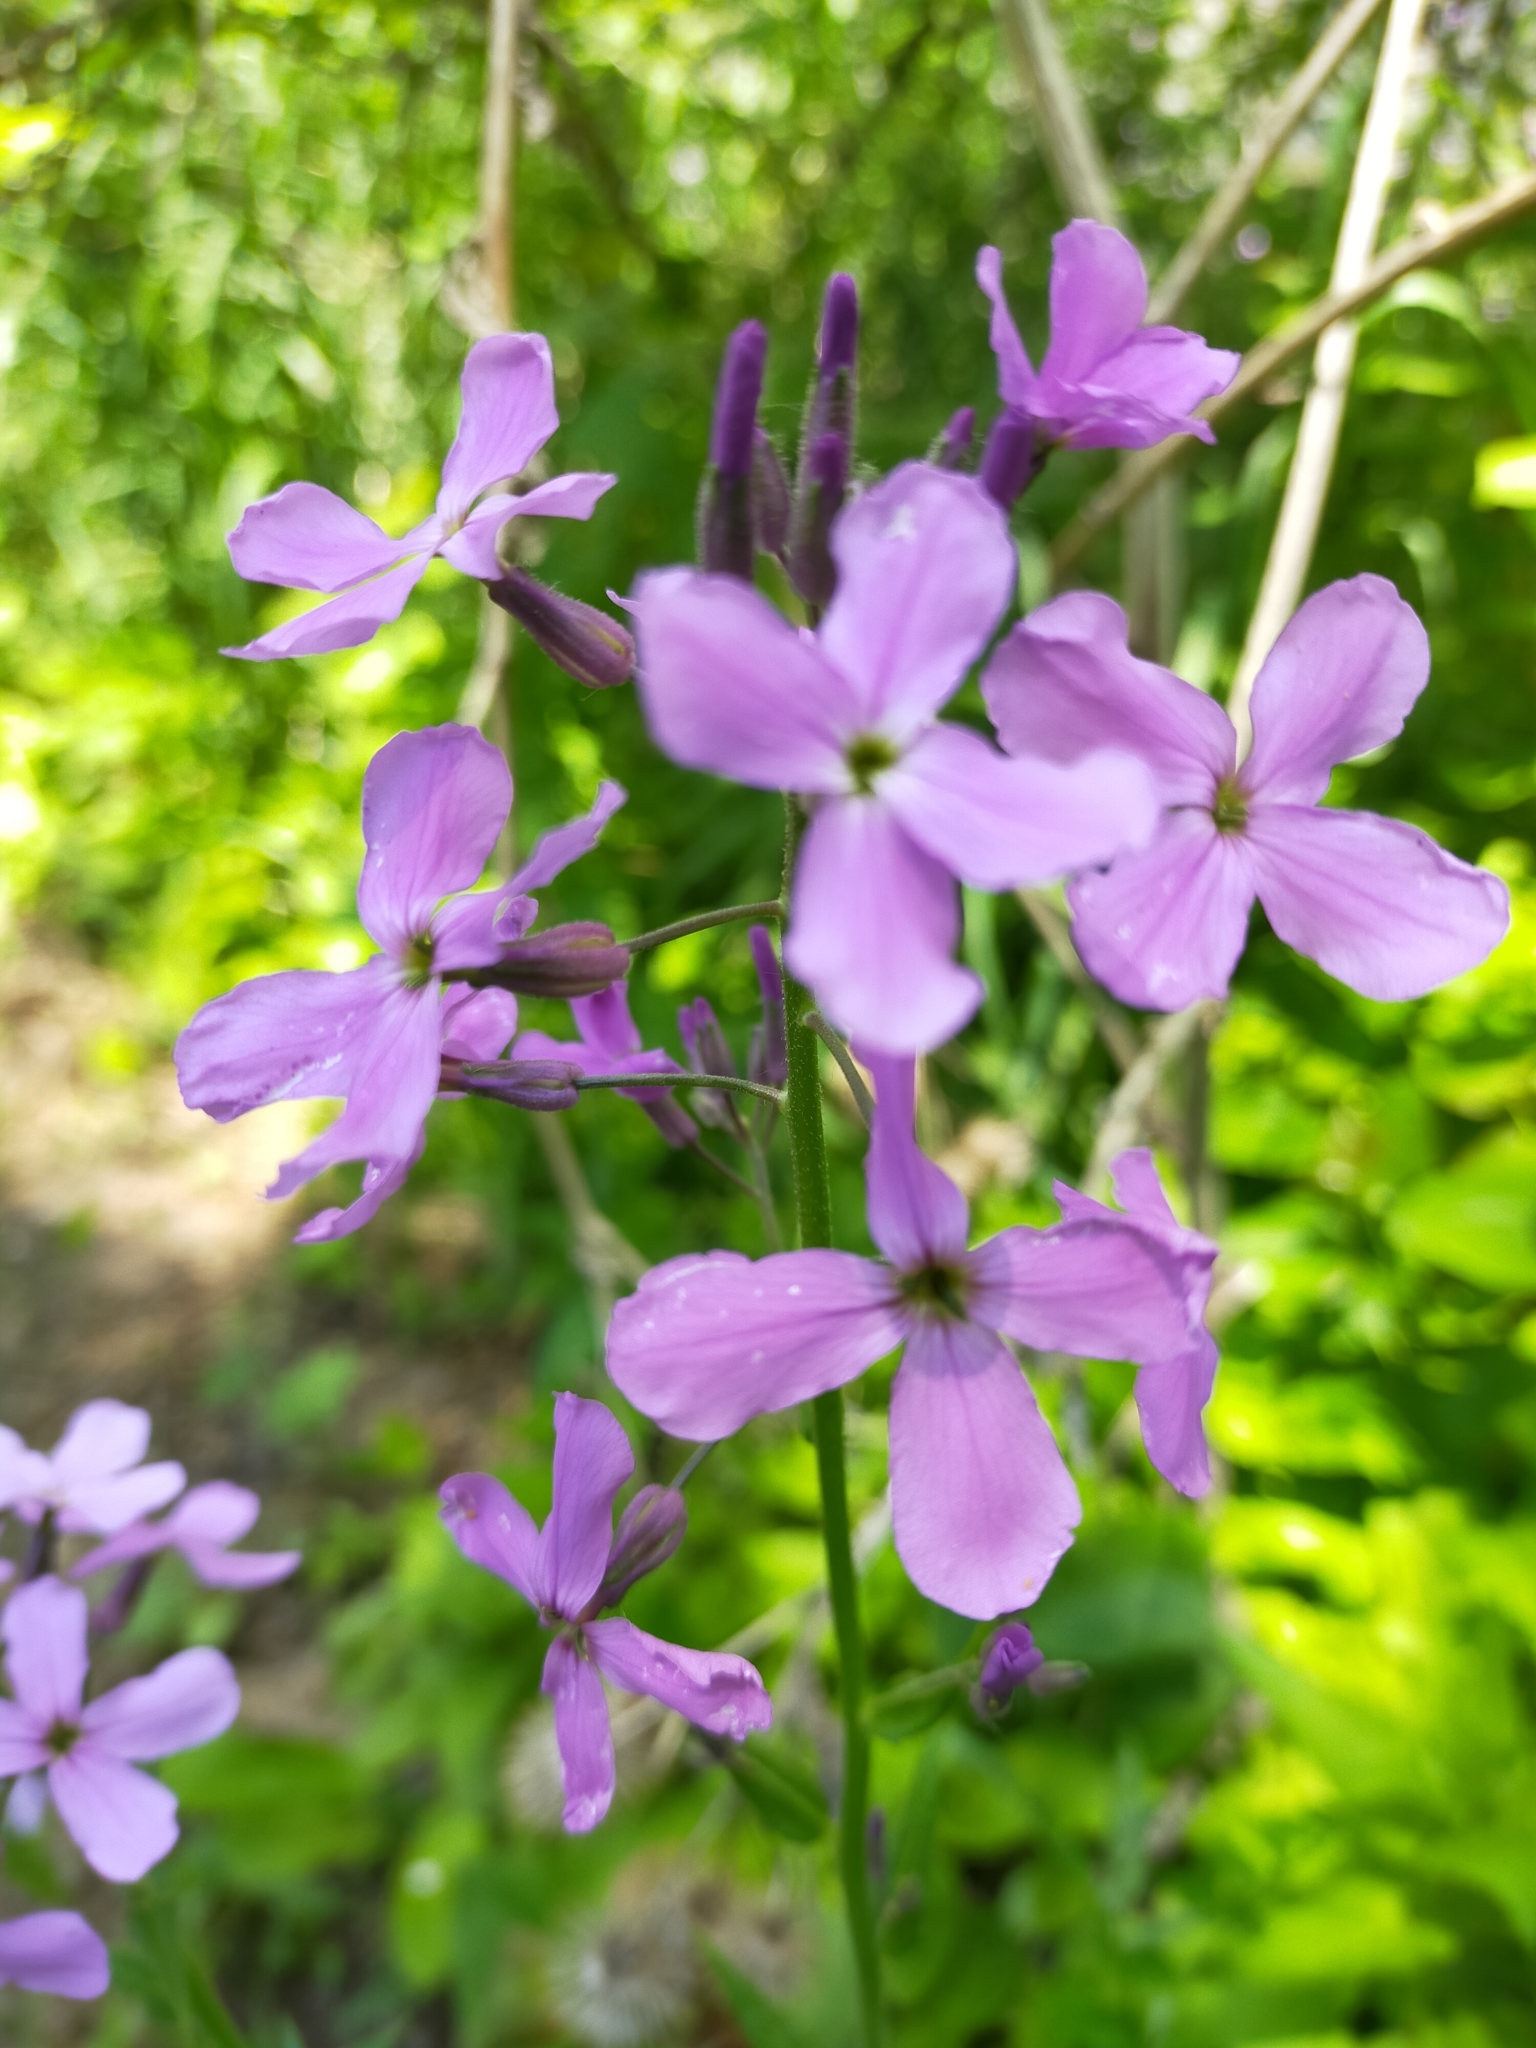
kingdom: Plantae
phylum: Tracheophyta
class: Magnoliopsida
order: Brassicales
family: Brassicaceae
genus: Hesperis
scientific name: Hesperis matronalis
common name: Dame's-violet
